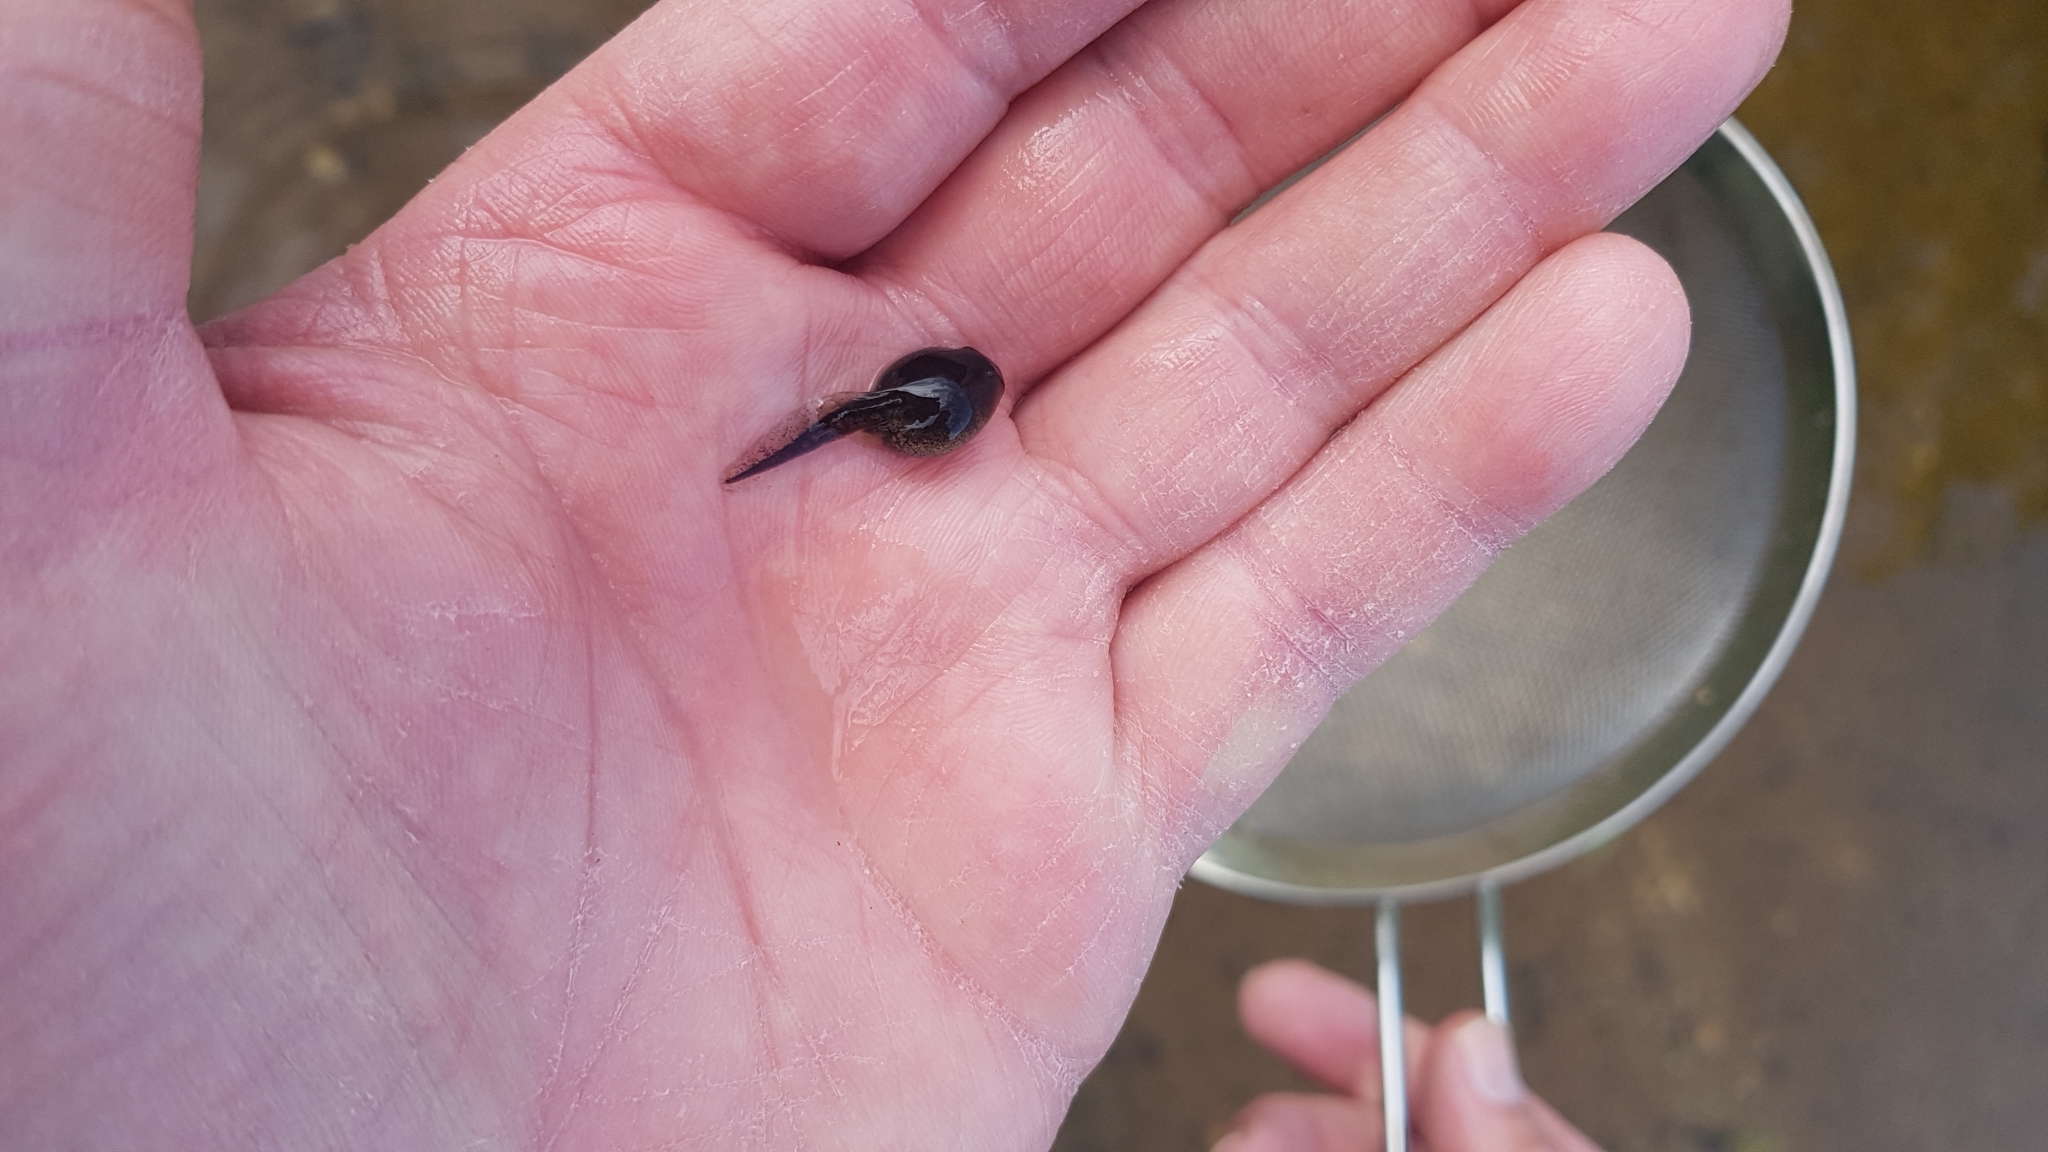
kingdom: Animalia
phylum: Chordata
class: Amphibia
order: Anura
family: Bufonidae
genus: Bufotes
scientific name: Bufotes viridis
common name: European green toad
